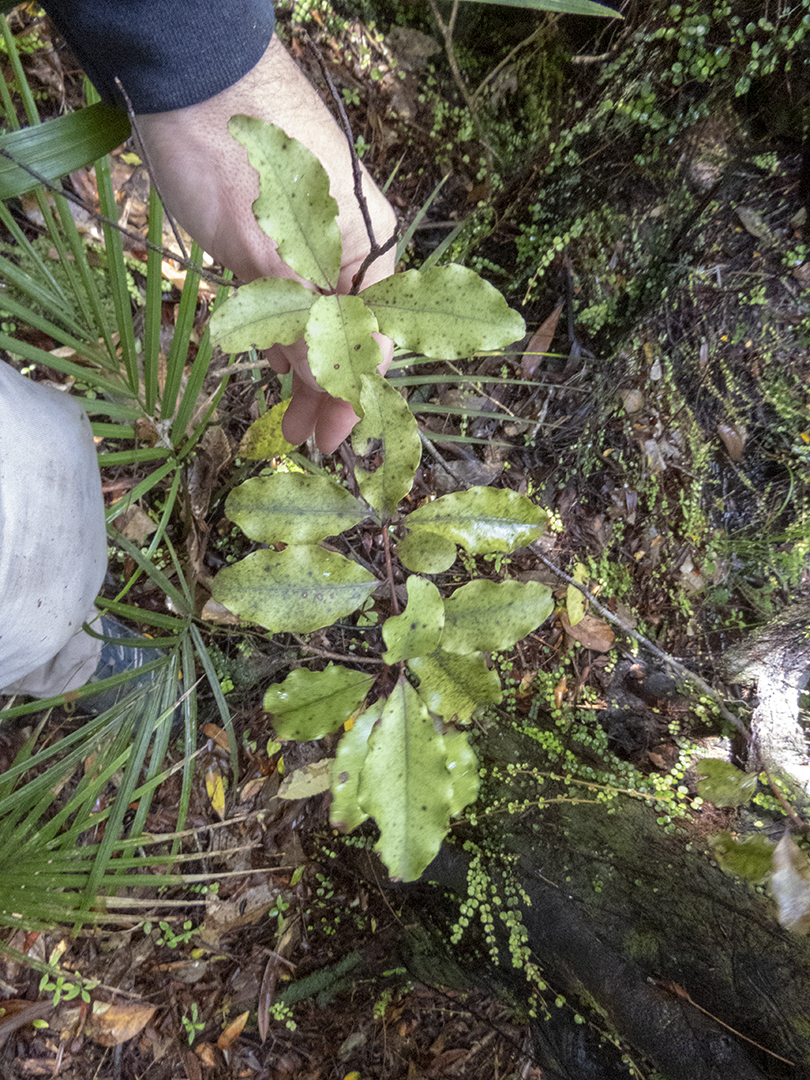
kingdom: Plantae
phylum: Tracheophyta
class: Magnoliopsida
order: Ericales
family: Primulaceae
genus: Myrsine
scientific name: Myrsine australis
